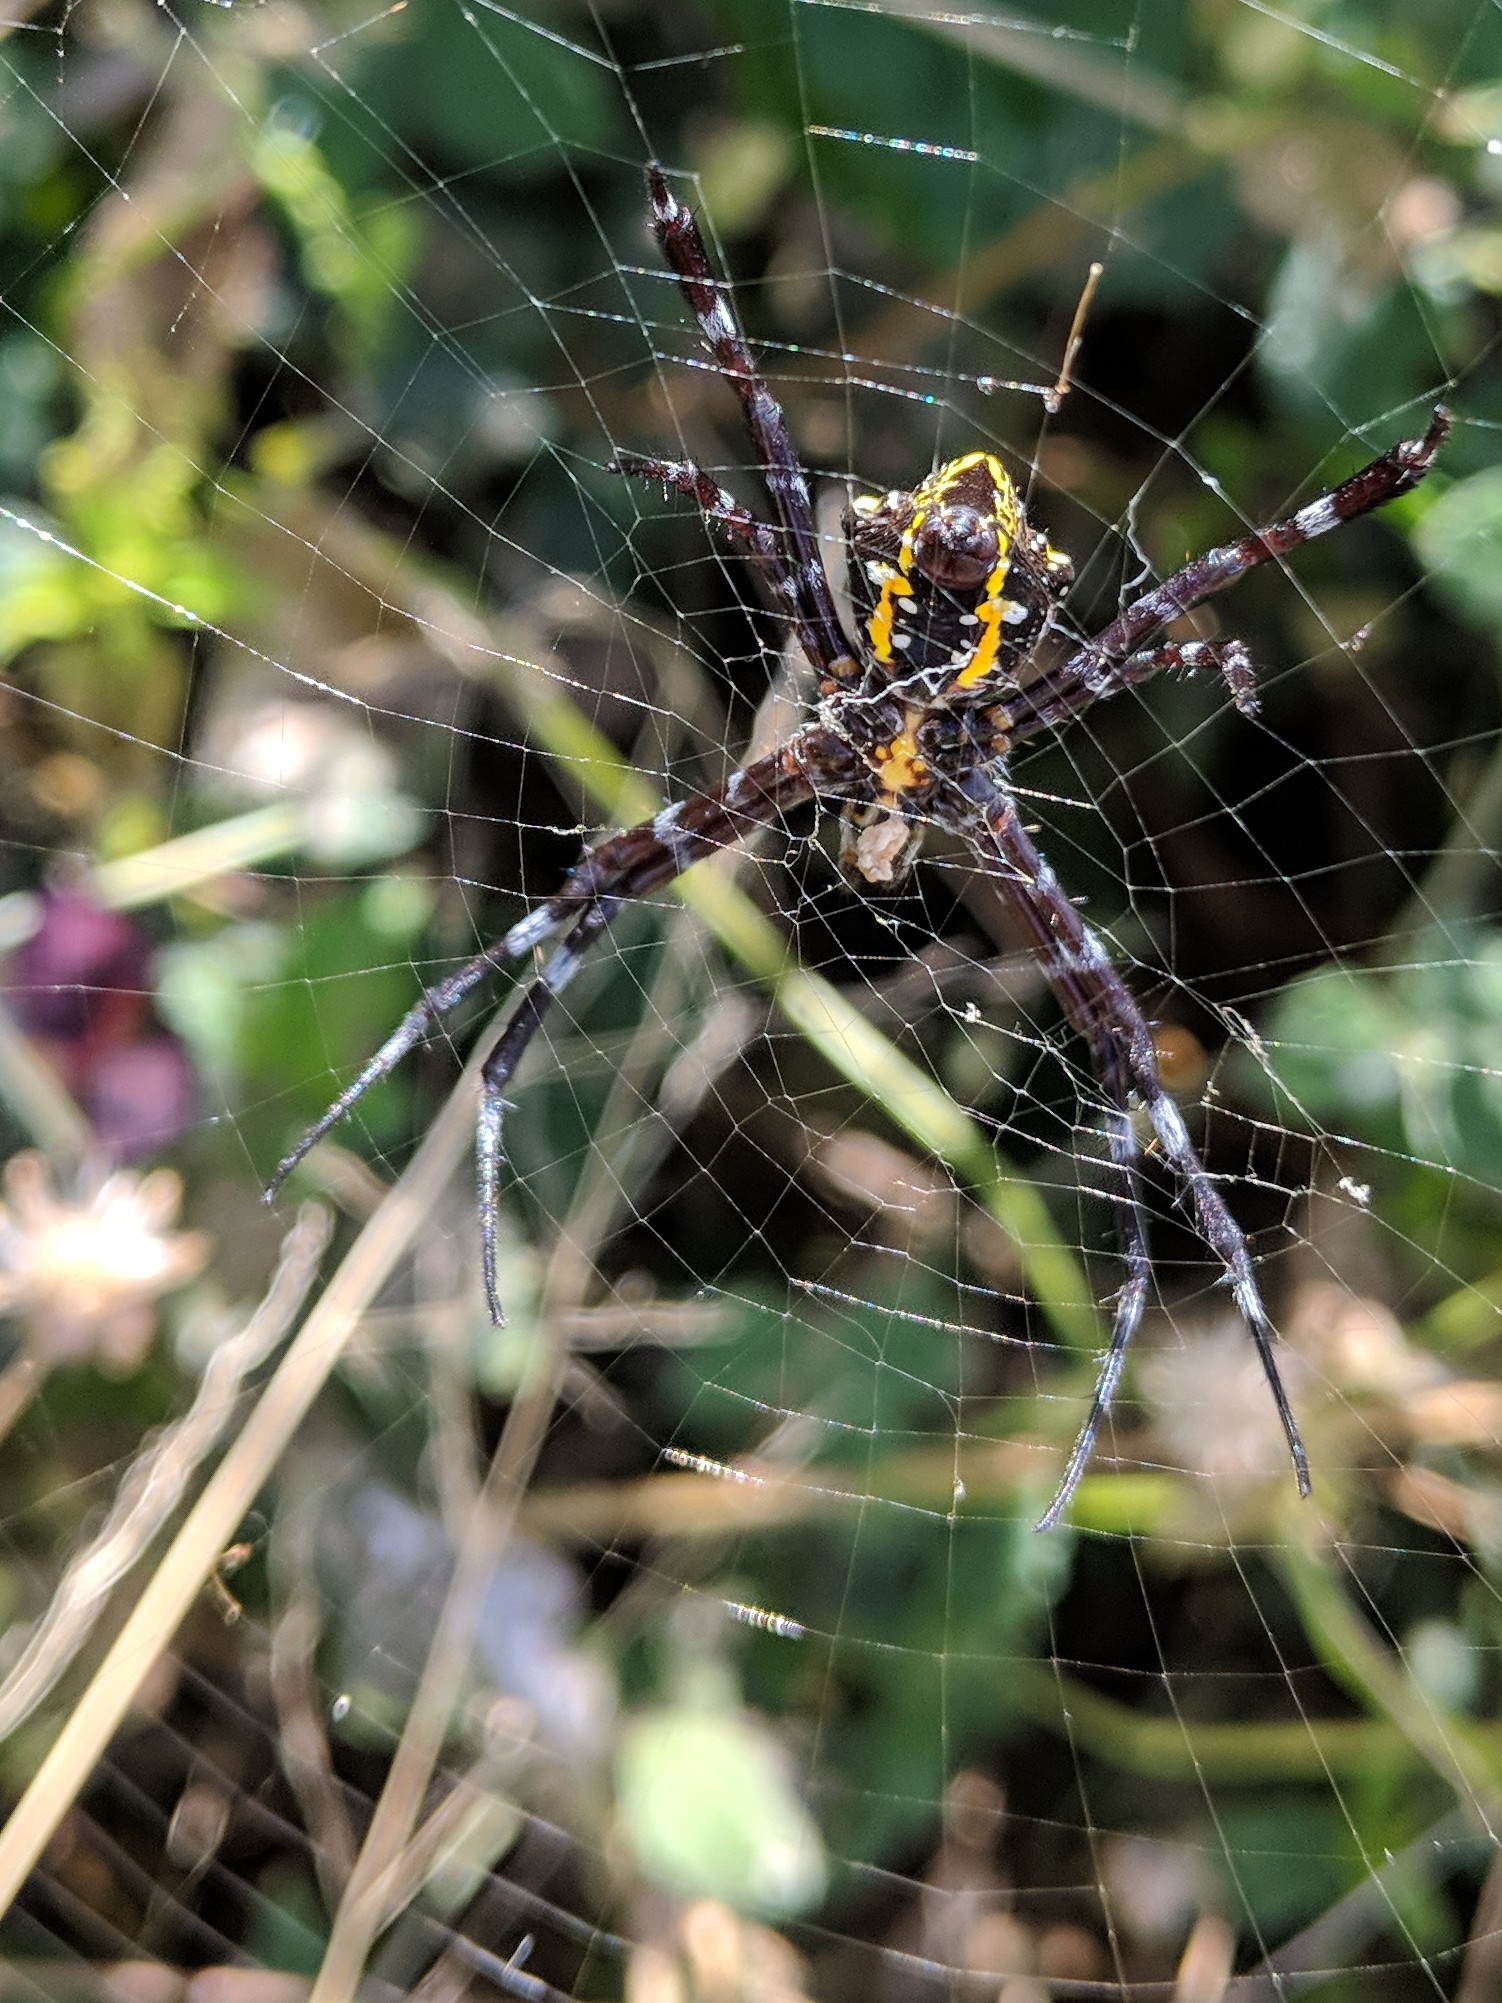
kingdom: Animalia
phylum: Arthropoda
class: Arachnida
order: Araneae
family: Araneidae
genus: Argiope
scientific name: Argiope appensa
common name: Garden spider
